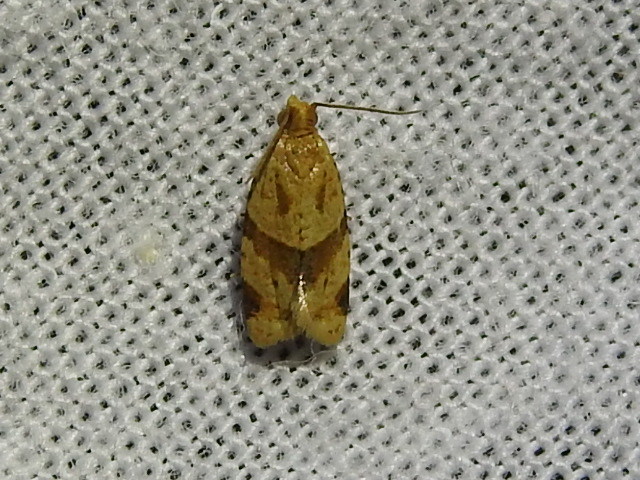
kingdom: Animalia
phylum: Arthropoda
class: Insecta
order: Lepidoptera
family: Tortricidae
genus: Clepsis
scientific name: Clepsis peritana
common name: Garden tortrix
